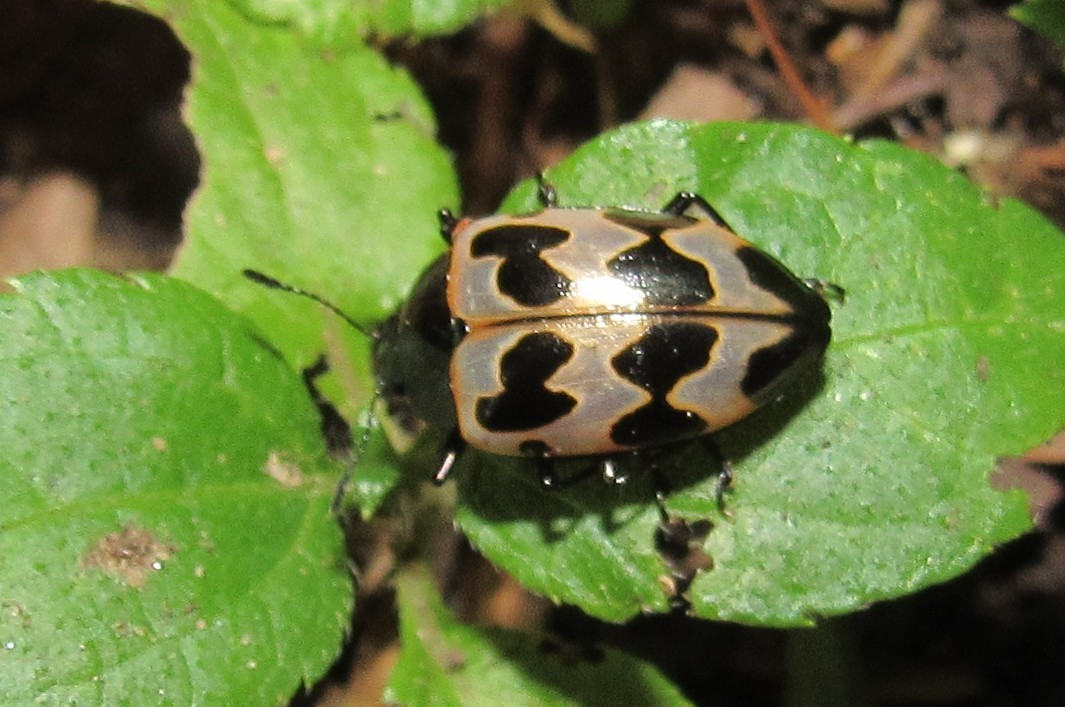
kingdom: Animalia
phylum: Arthropoda
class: Insecta
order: Coleoptera
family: Erotylidae
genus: Oligocorynus
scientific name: Oligocorynus
